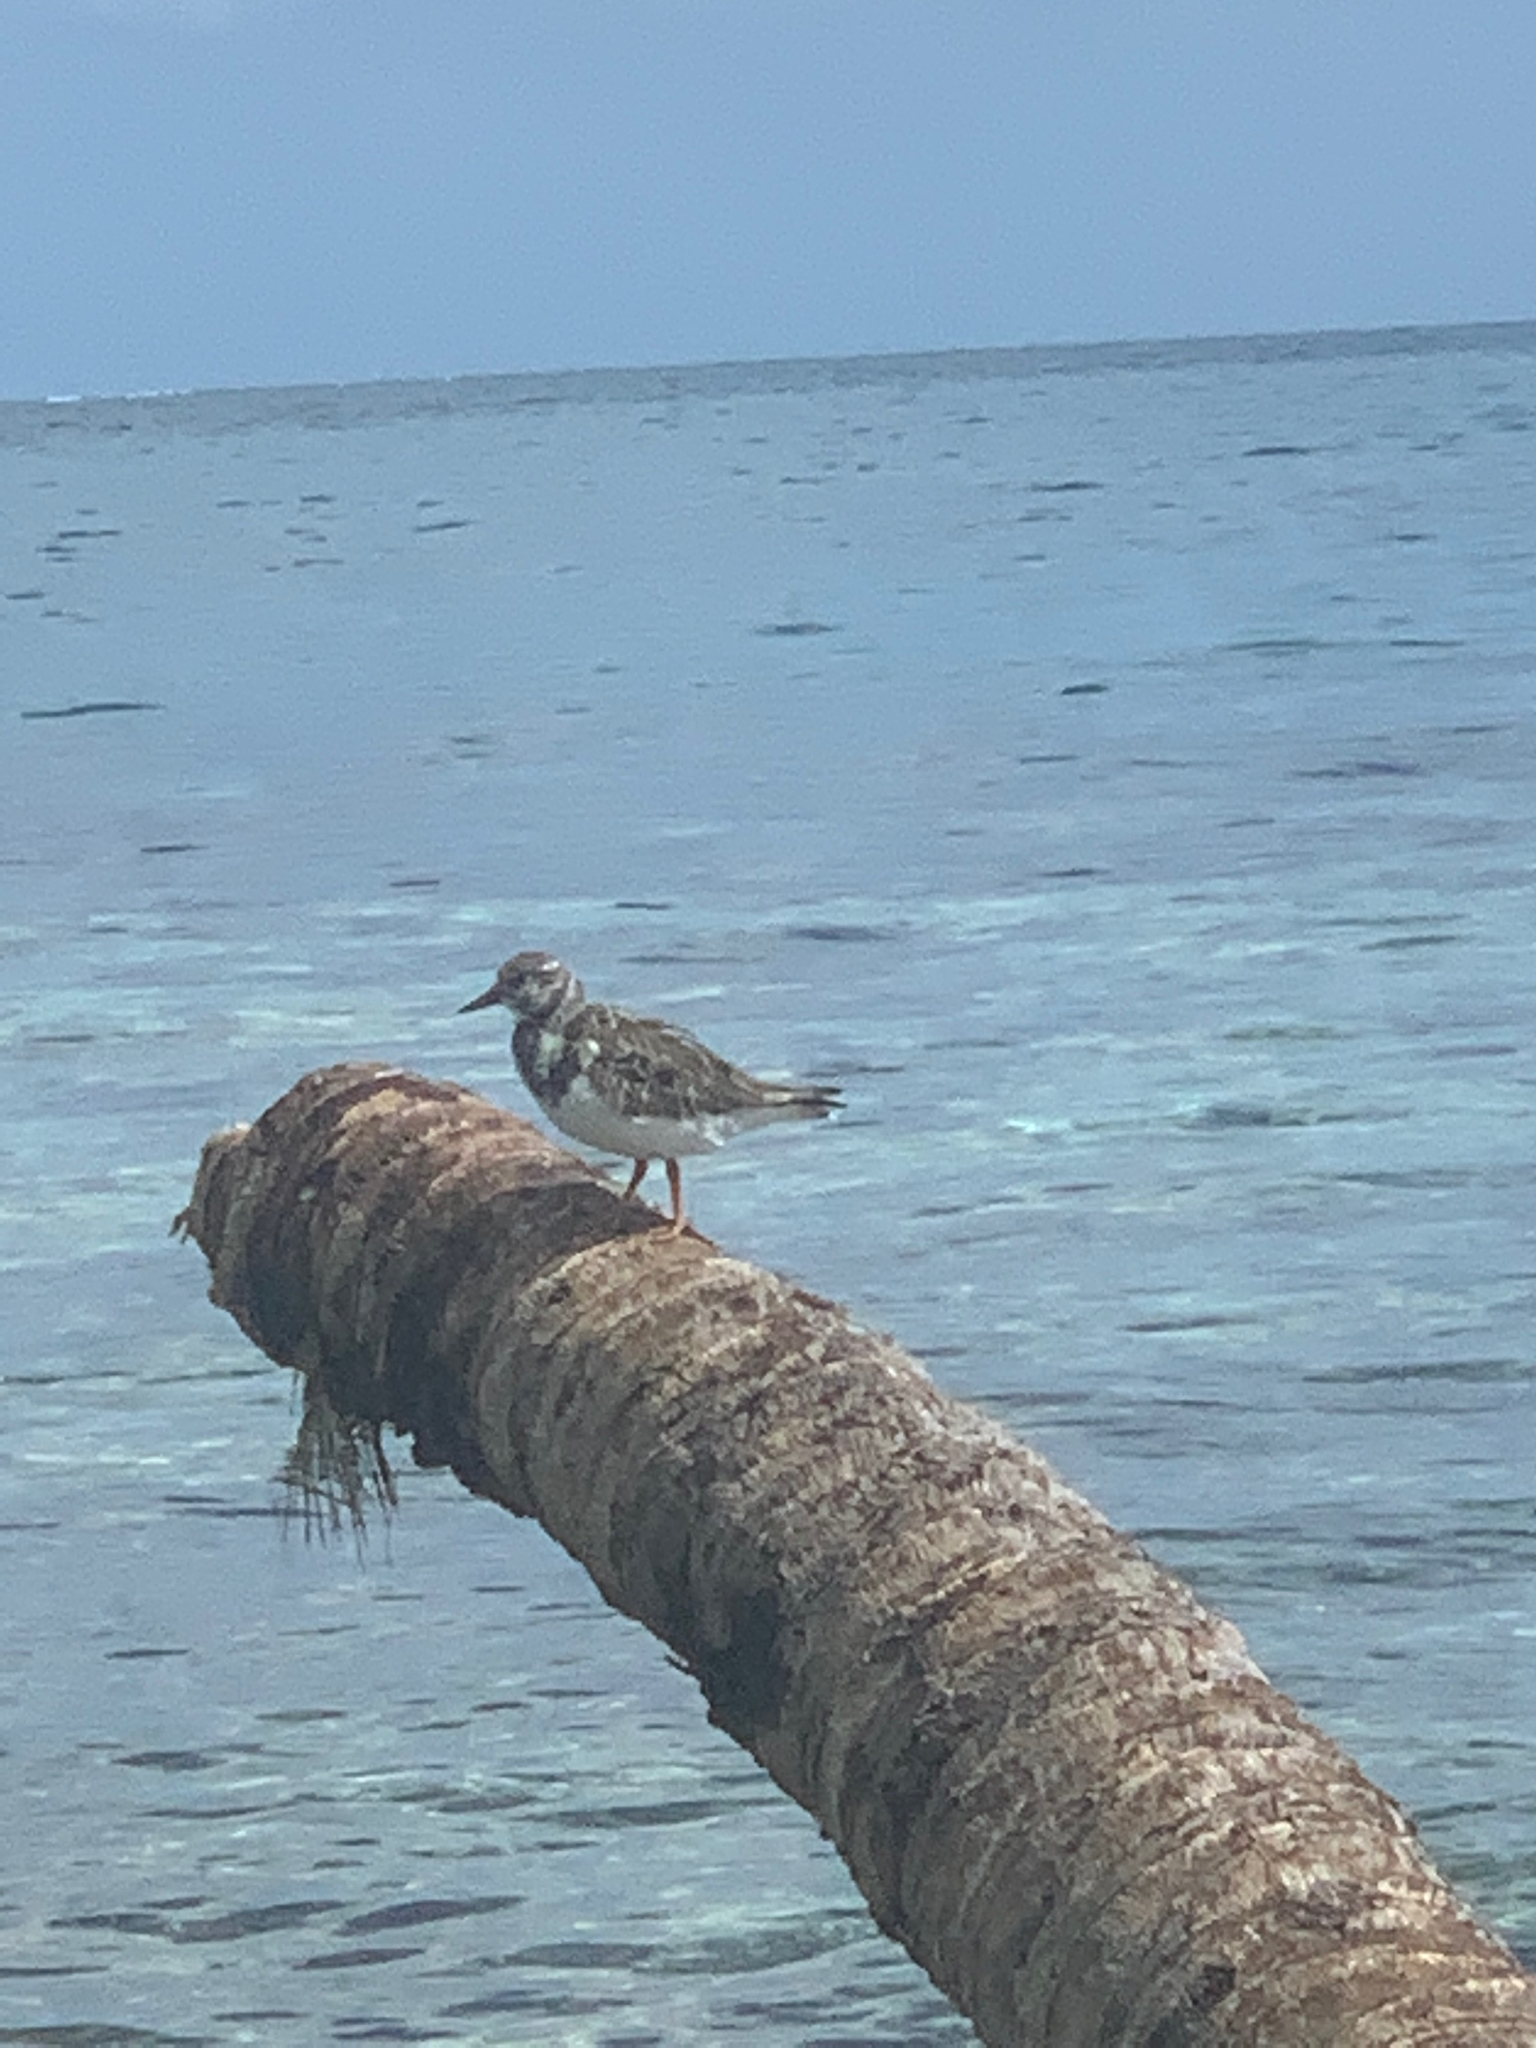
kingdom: Animalia
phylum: Chordata
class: Aves
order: Charadriiformes
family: Scolopacidae
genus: Arenaria
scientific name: Arenaria interpres
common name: Ruddy turnstone
